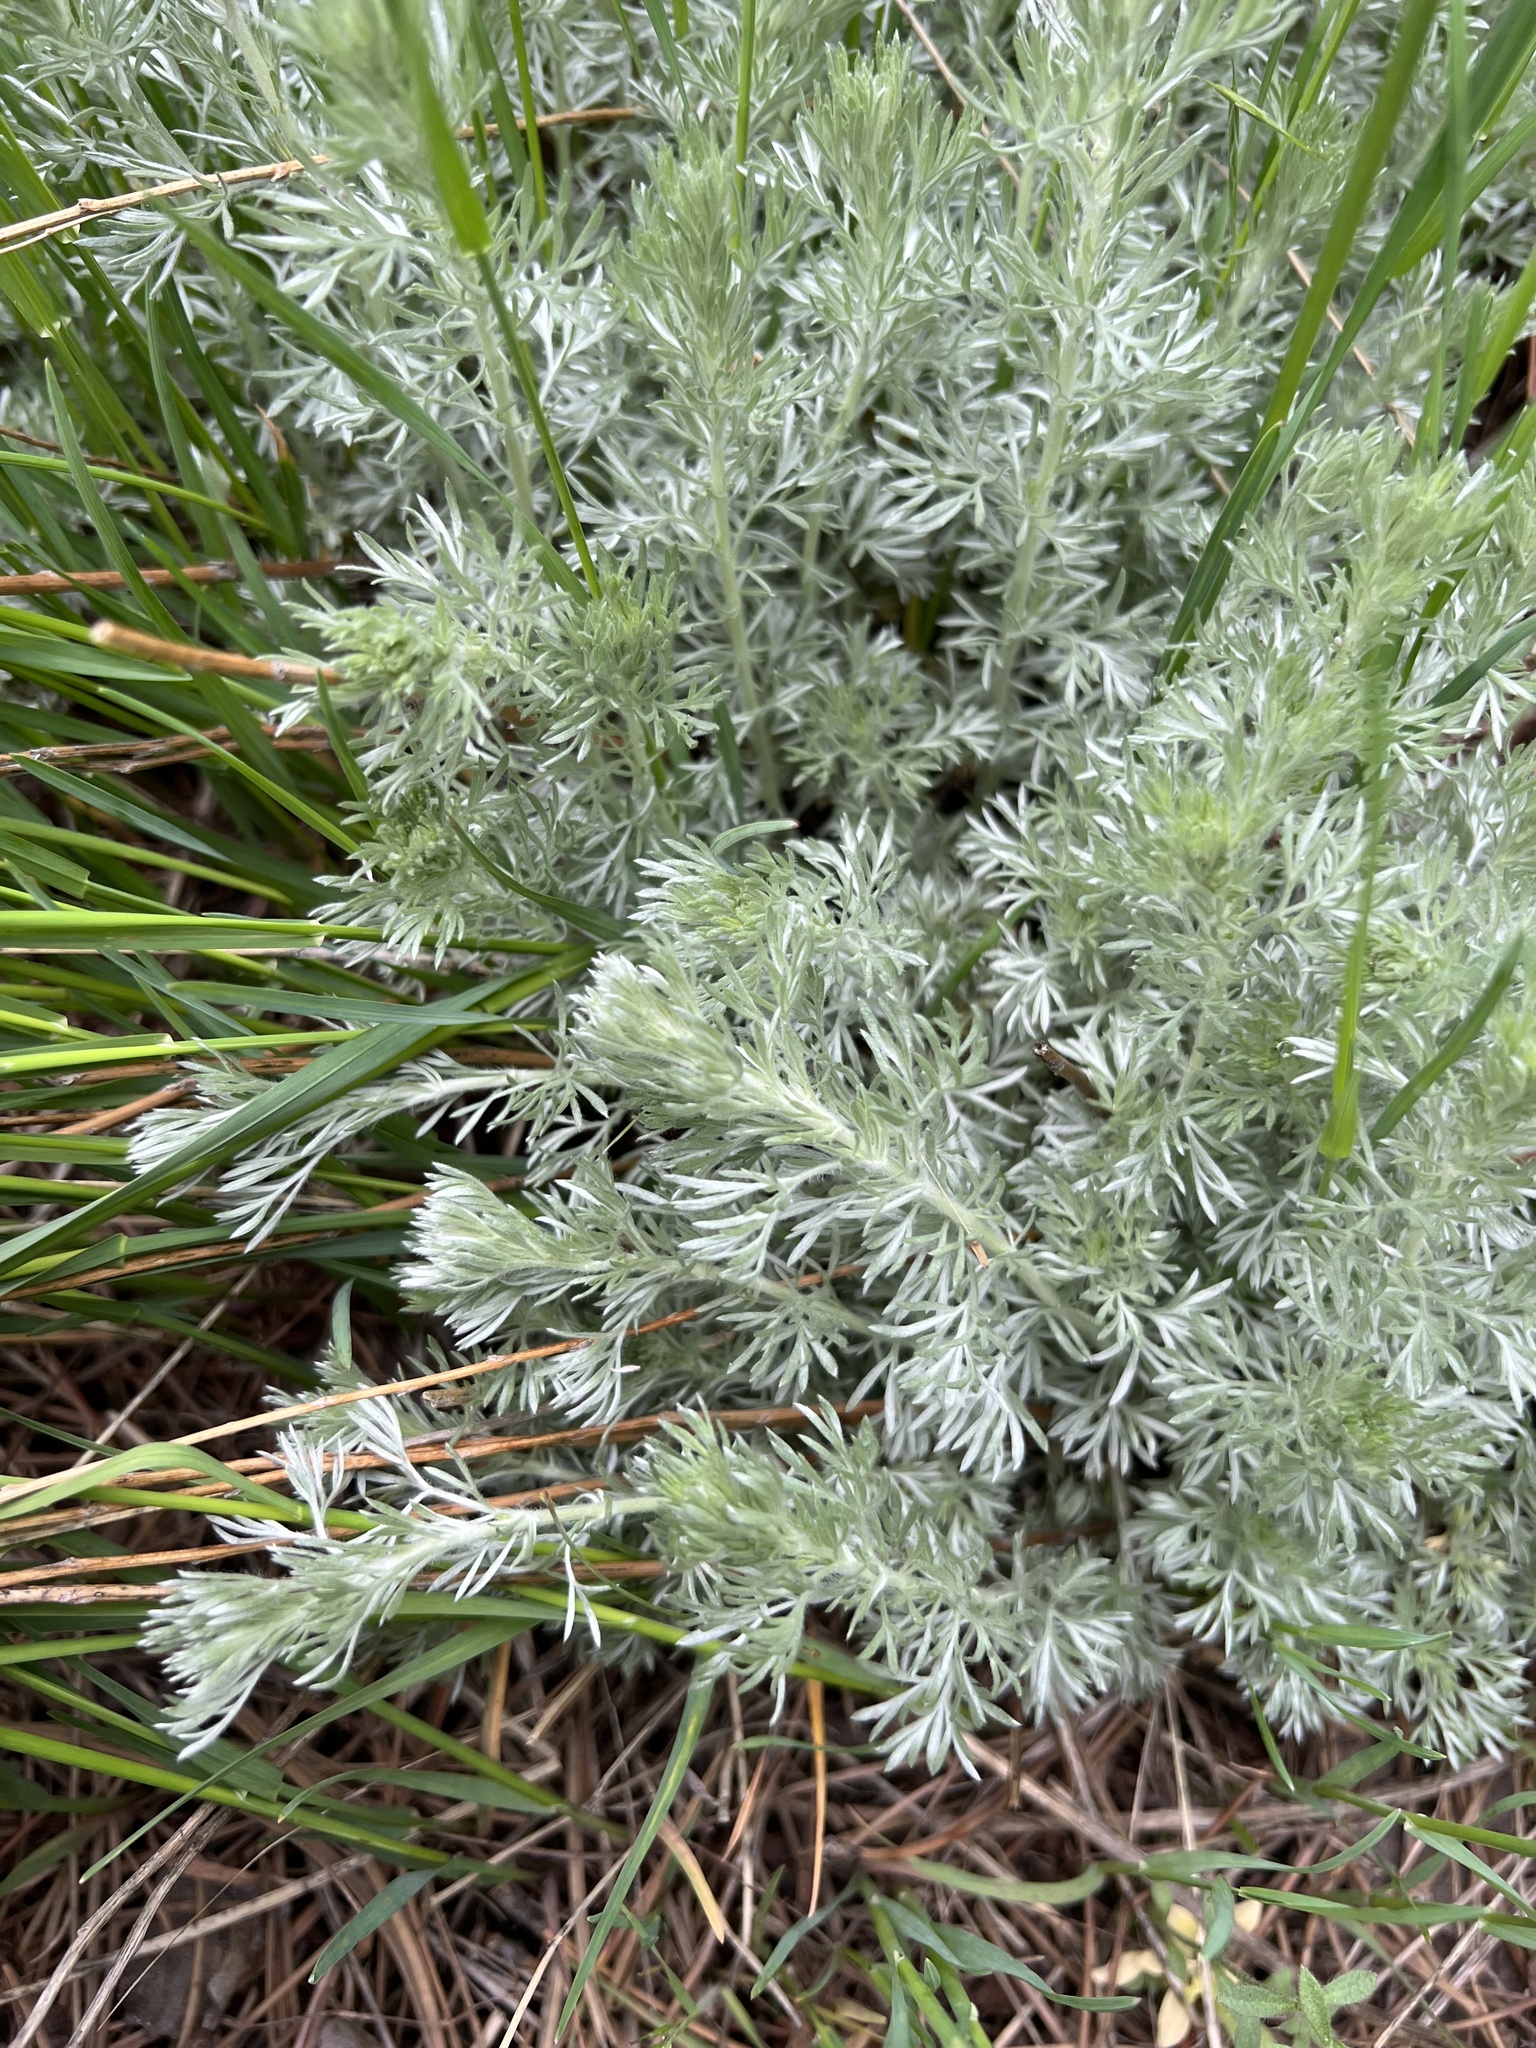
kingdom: Plantae
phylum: Tracheophyta
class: Magnoliopsida
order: Asterales
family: Asteraceae
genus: Artemisia
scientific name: Artemisia frigida
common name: Prairie sagewort
